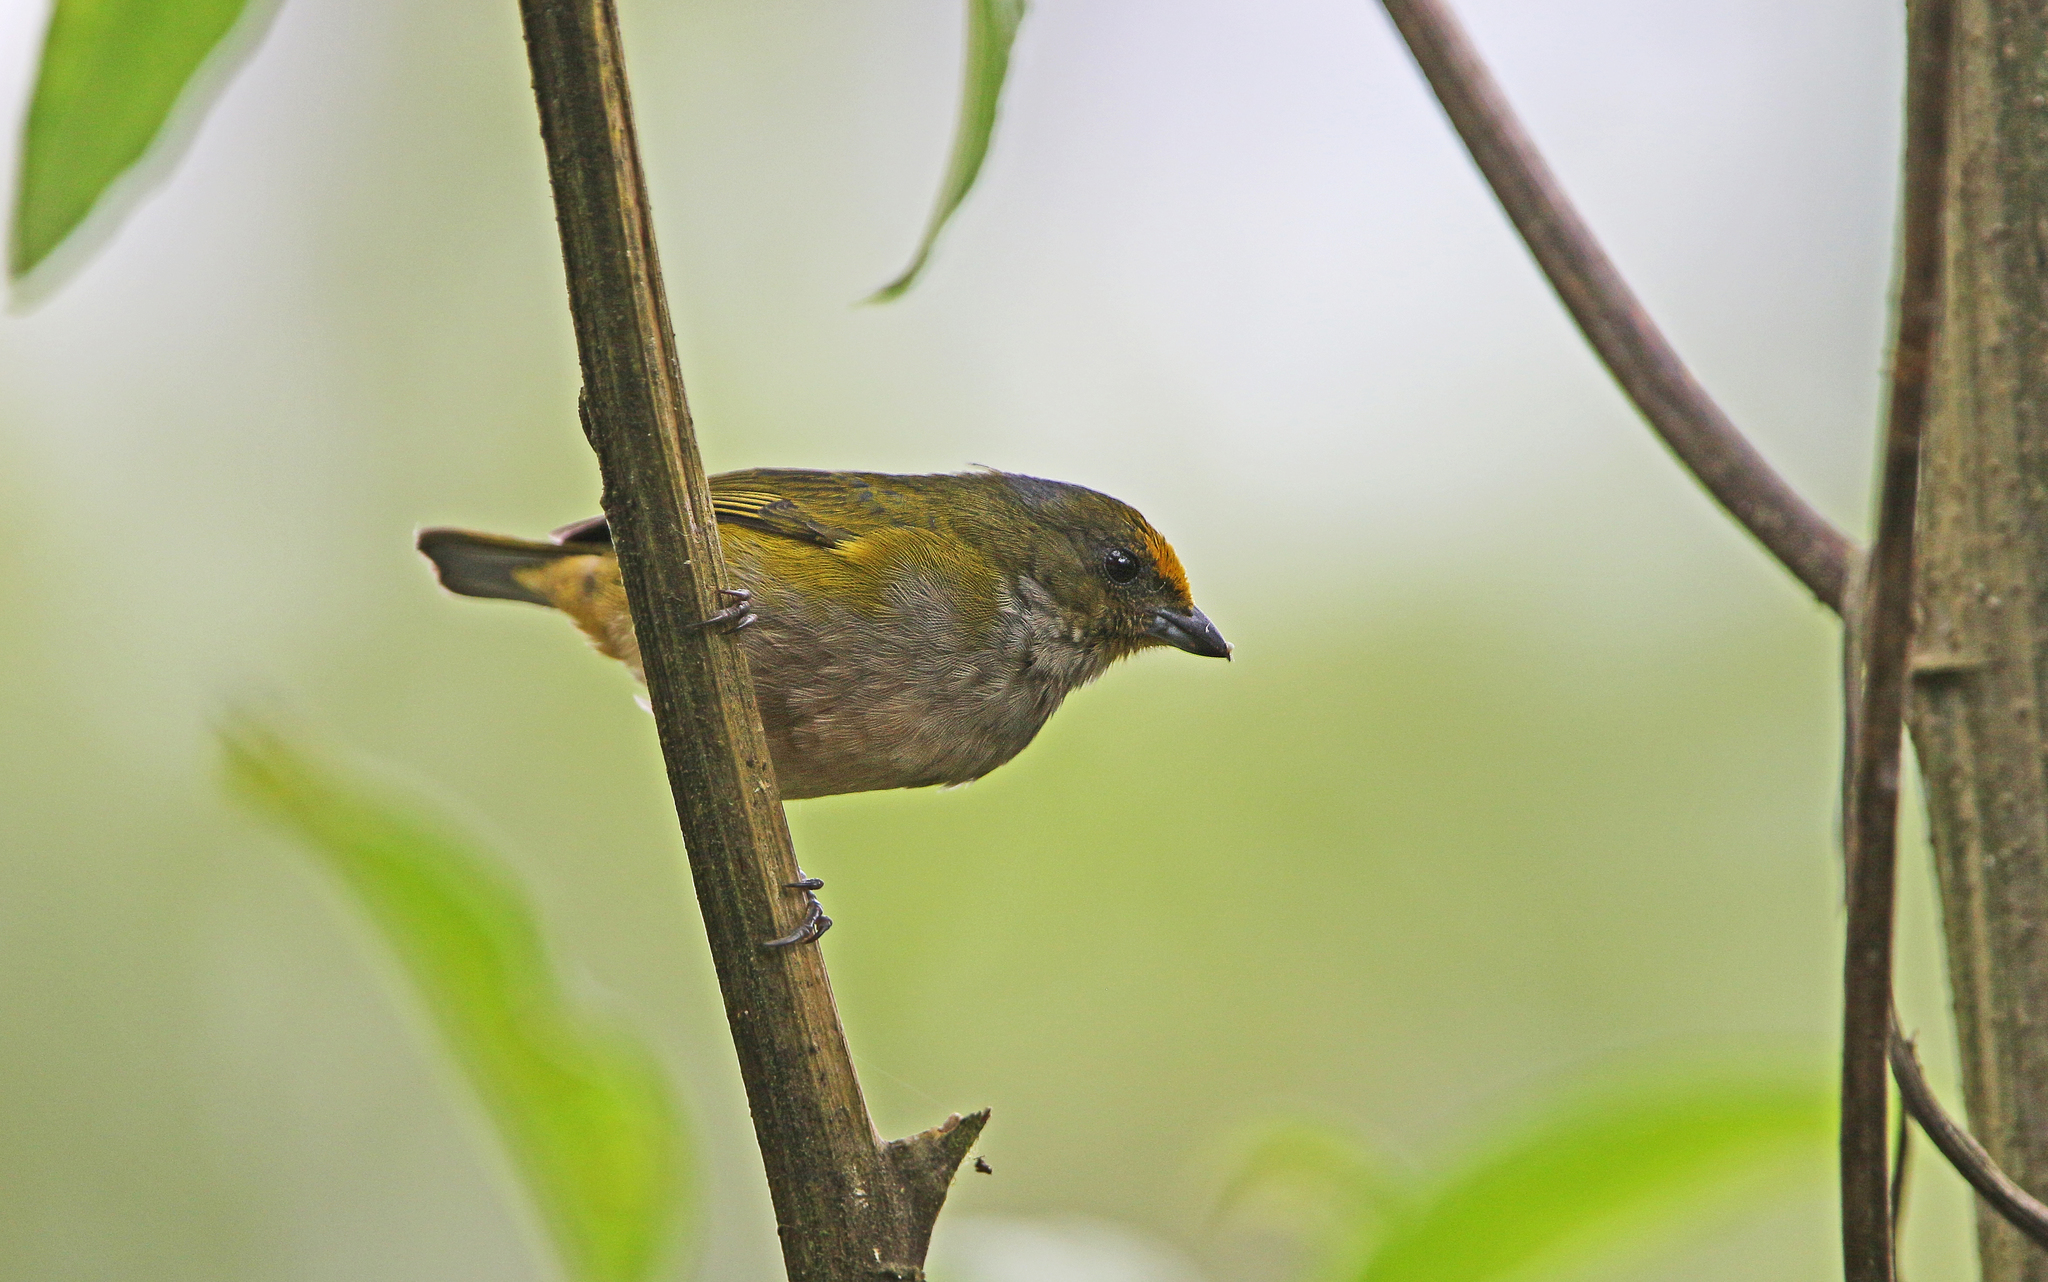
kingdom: Animalia
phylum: Chordata
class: Aves
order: Passeriformes
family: Fringillidae
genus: Euphonia
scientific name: Euphonia xanthogaster
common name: Orange-bellied euphonia
